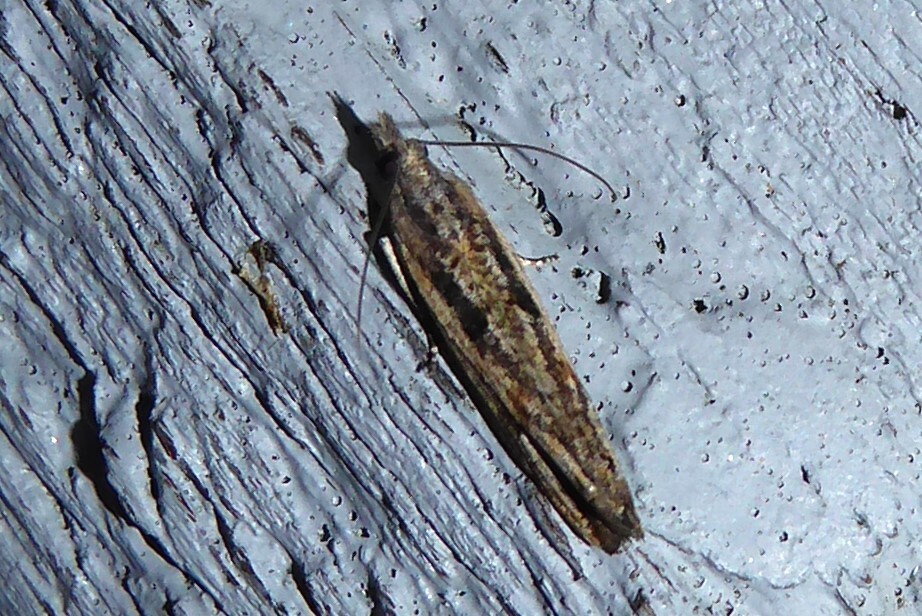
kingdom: Animalia
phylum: Arthropoda
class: Insecta
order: Lepidoptera
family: Tortricidae
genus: Strepsicrates
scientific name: Strepsicrates macropetana
